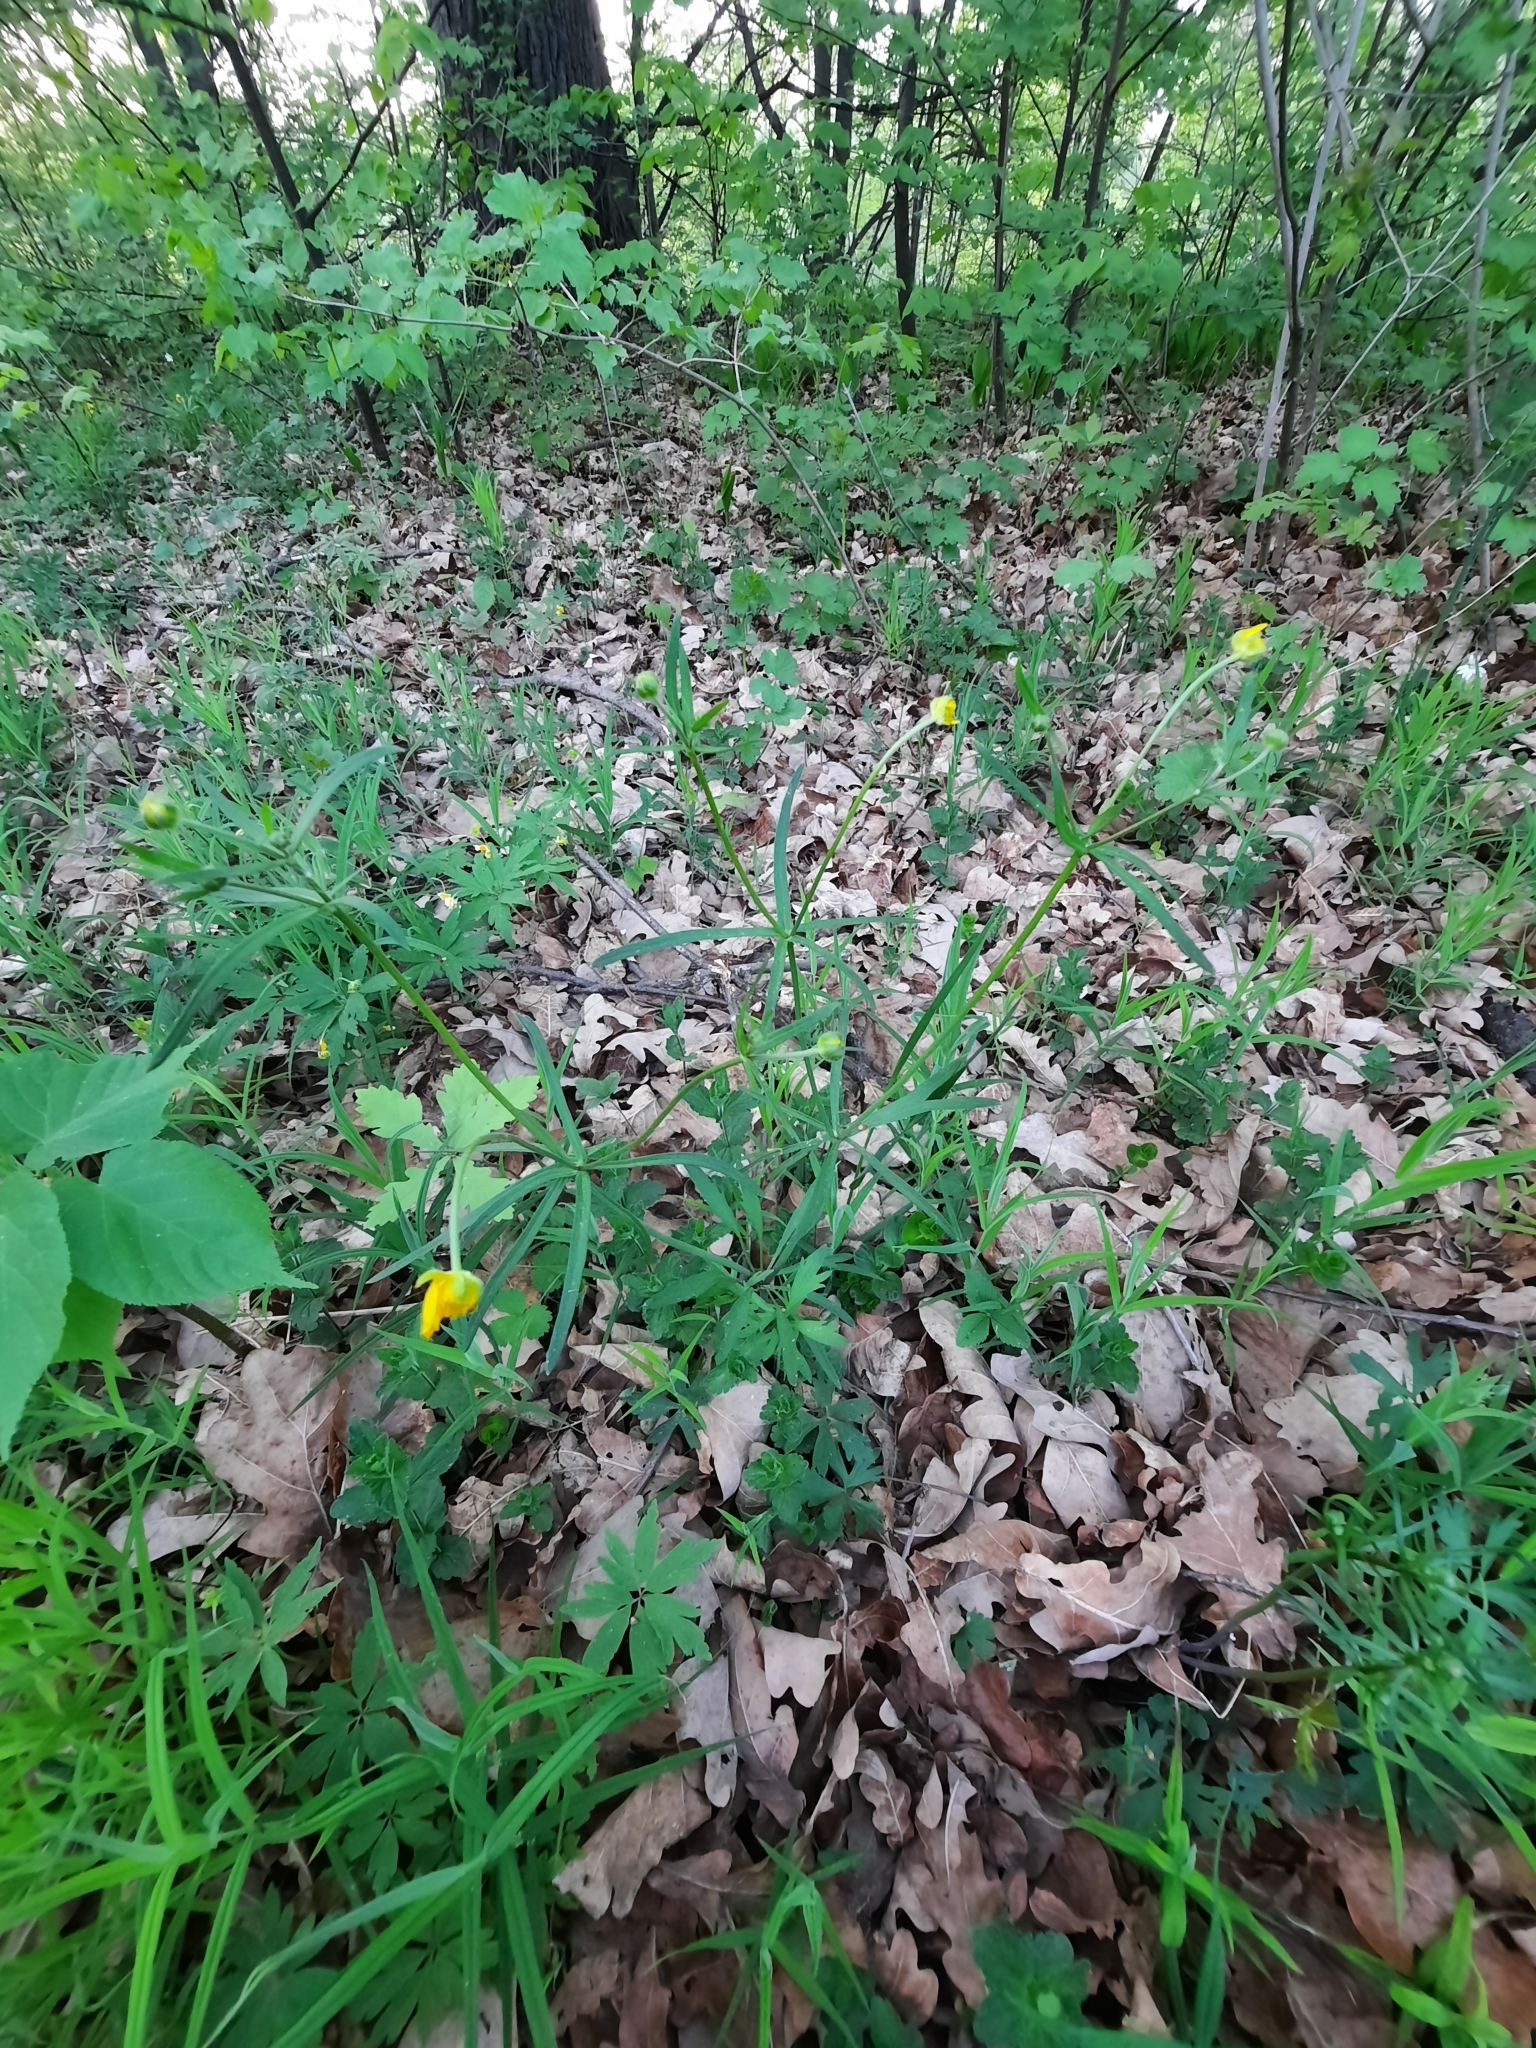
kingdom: Plantae
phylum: Tracheophyta
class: Magnoliopsida
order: Ranunculales
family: Ranunculaceae
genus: Ranunculus
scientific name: Ranunculus auricomus
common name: Goldilocks buttercup
